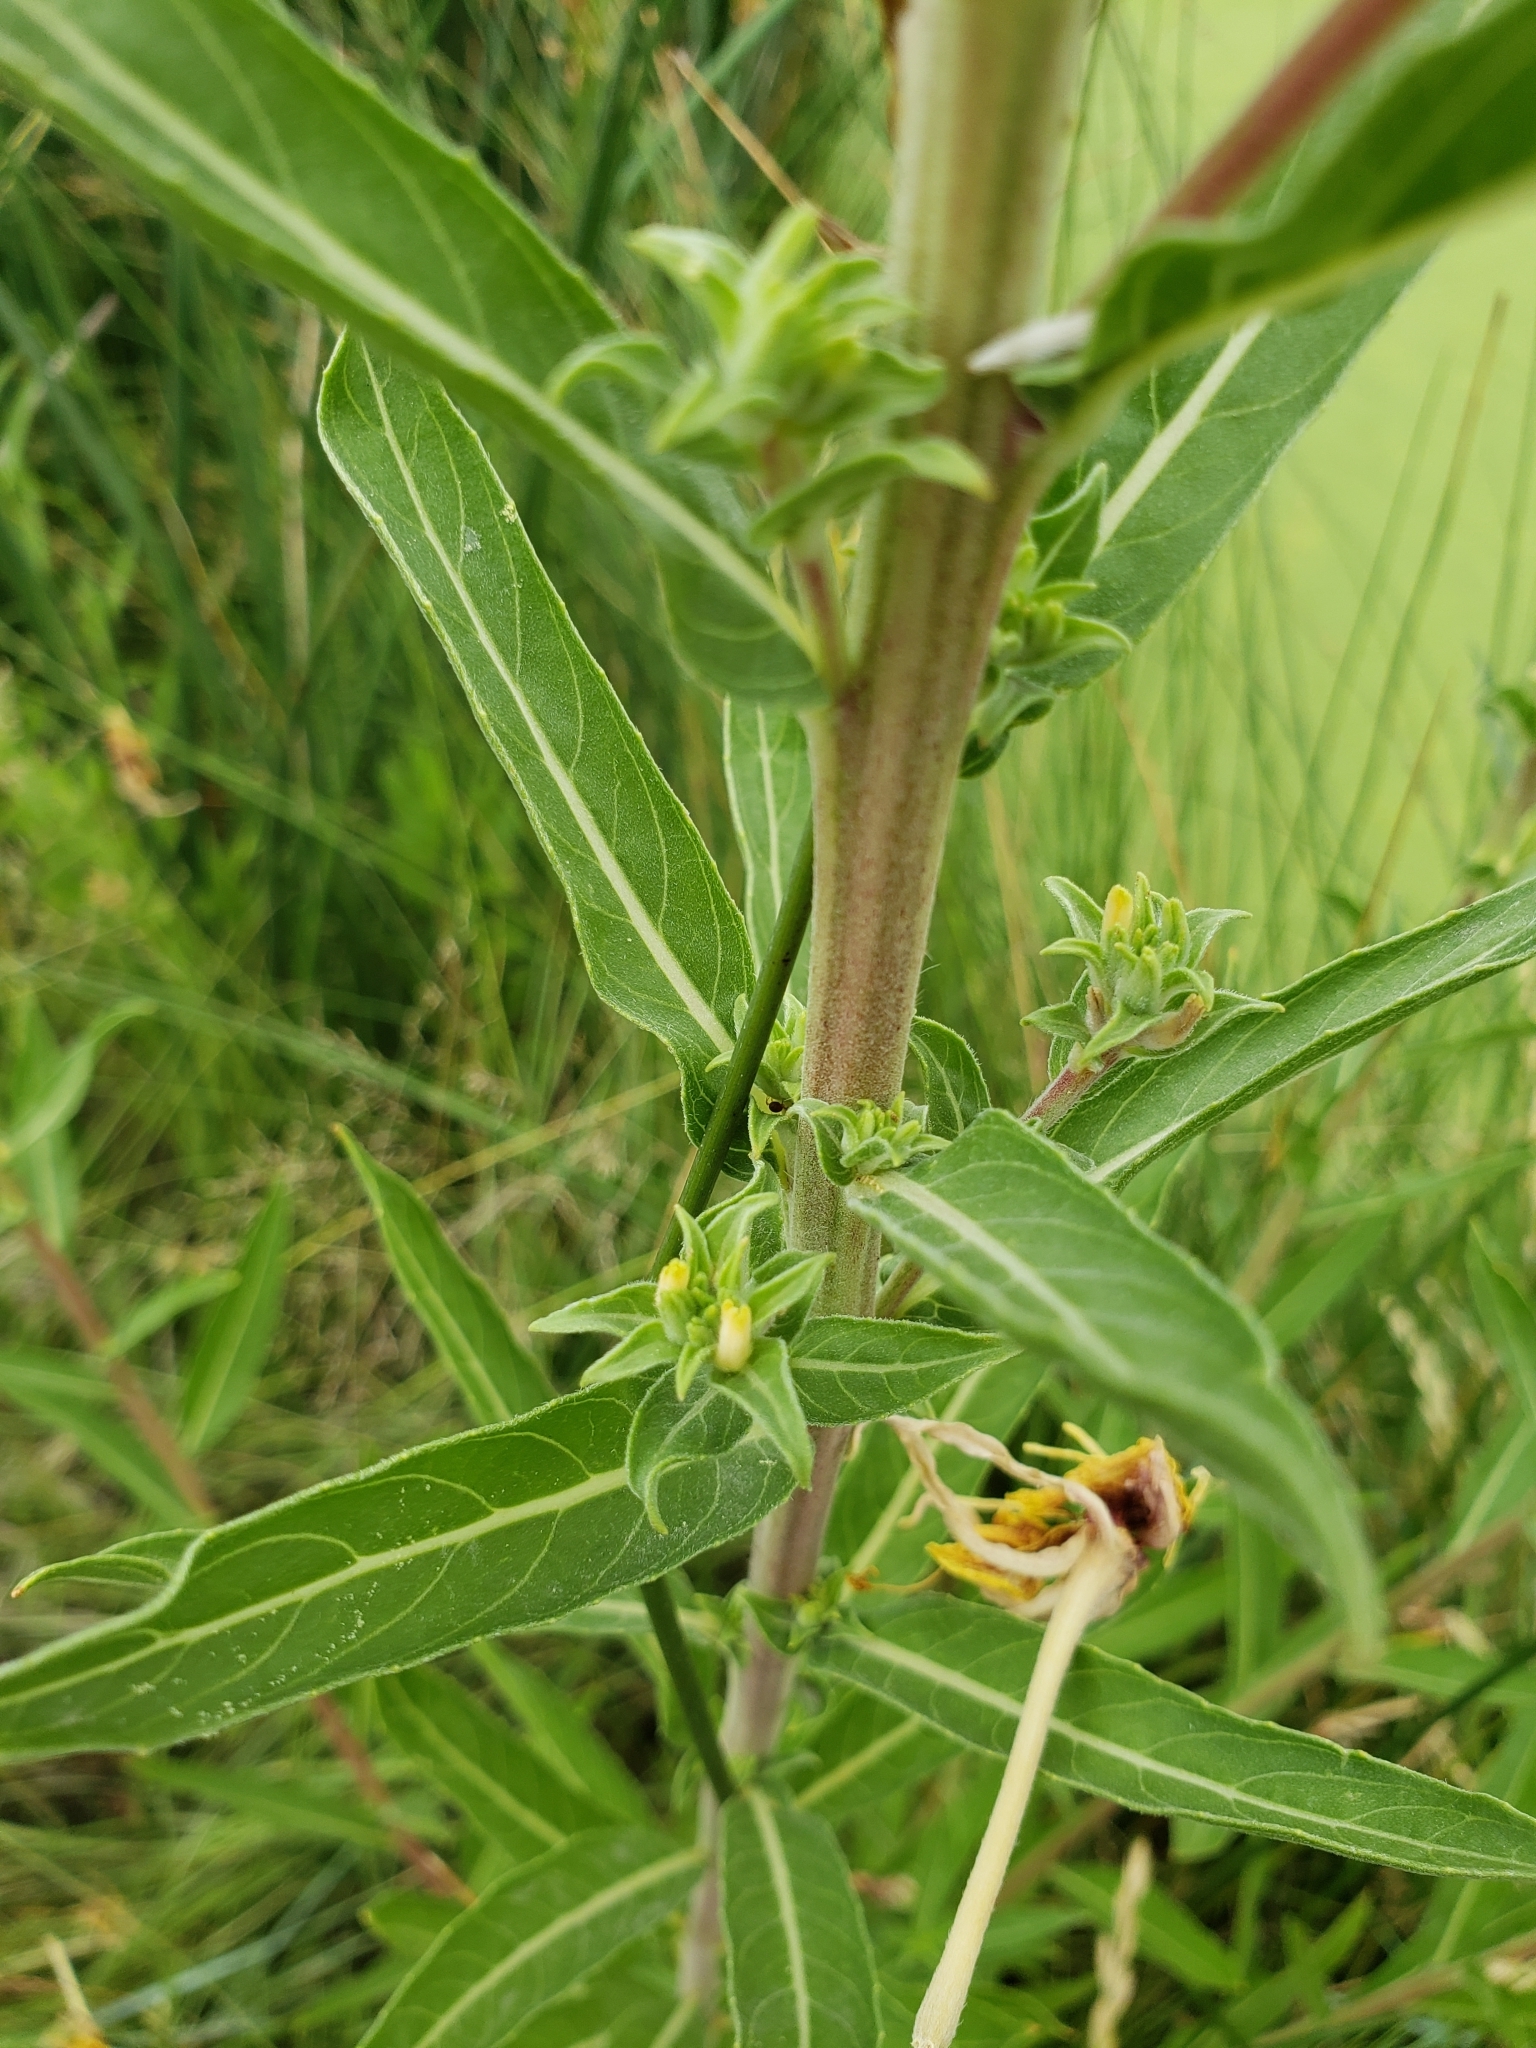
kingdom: Plantae
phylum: Tracheophyta
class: Magnoliopsida
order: Myrtales
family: Onagraceae
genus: Oenothera
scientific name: Oenothera elata
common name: Hooker's evening-primrose
